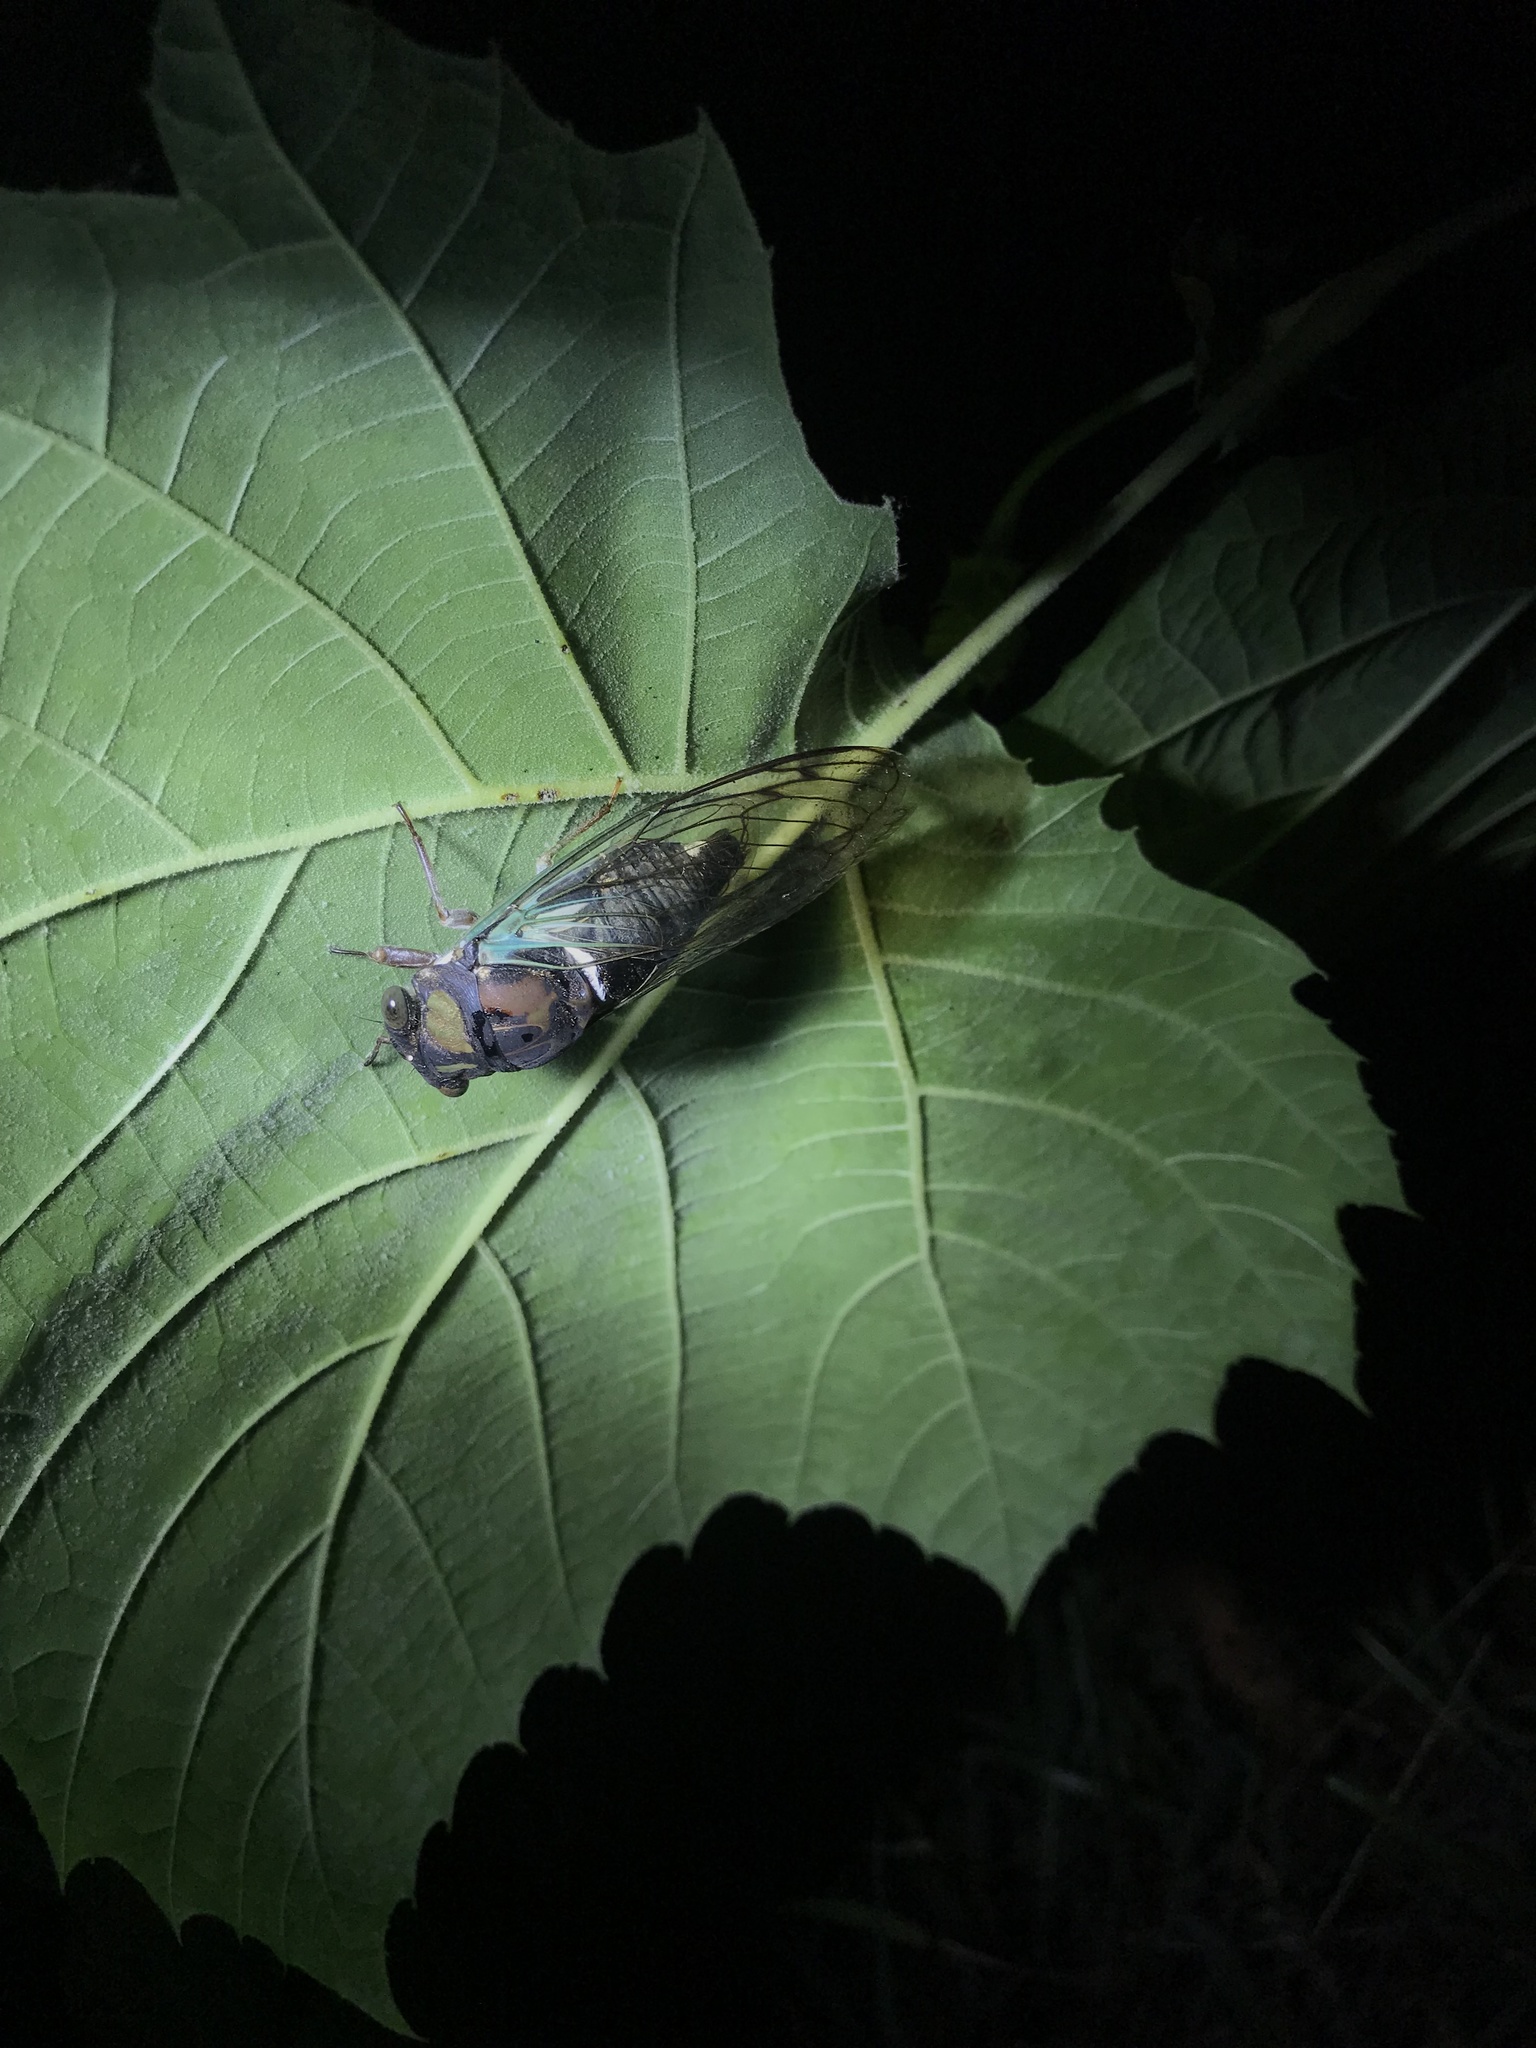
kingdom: Animalia
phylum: Arthropoda
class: Insecta
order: Hemiptera
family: Cicadidae
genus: Neotibicen
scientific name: Neotibicen lyricen
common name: Lyric cicada
